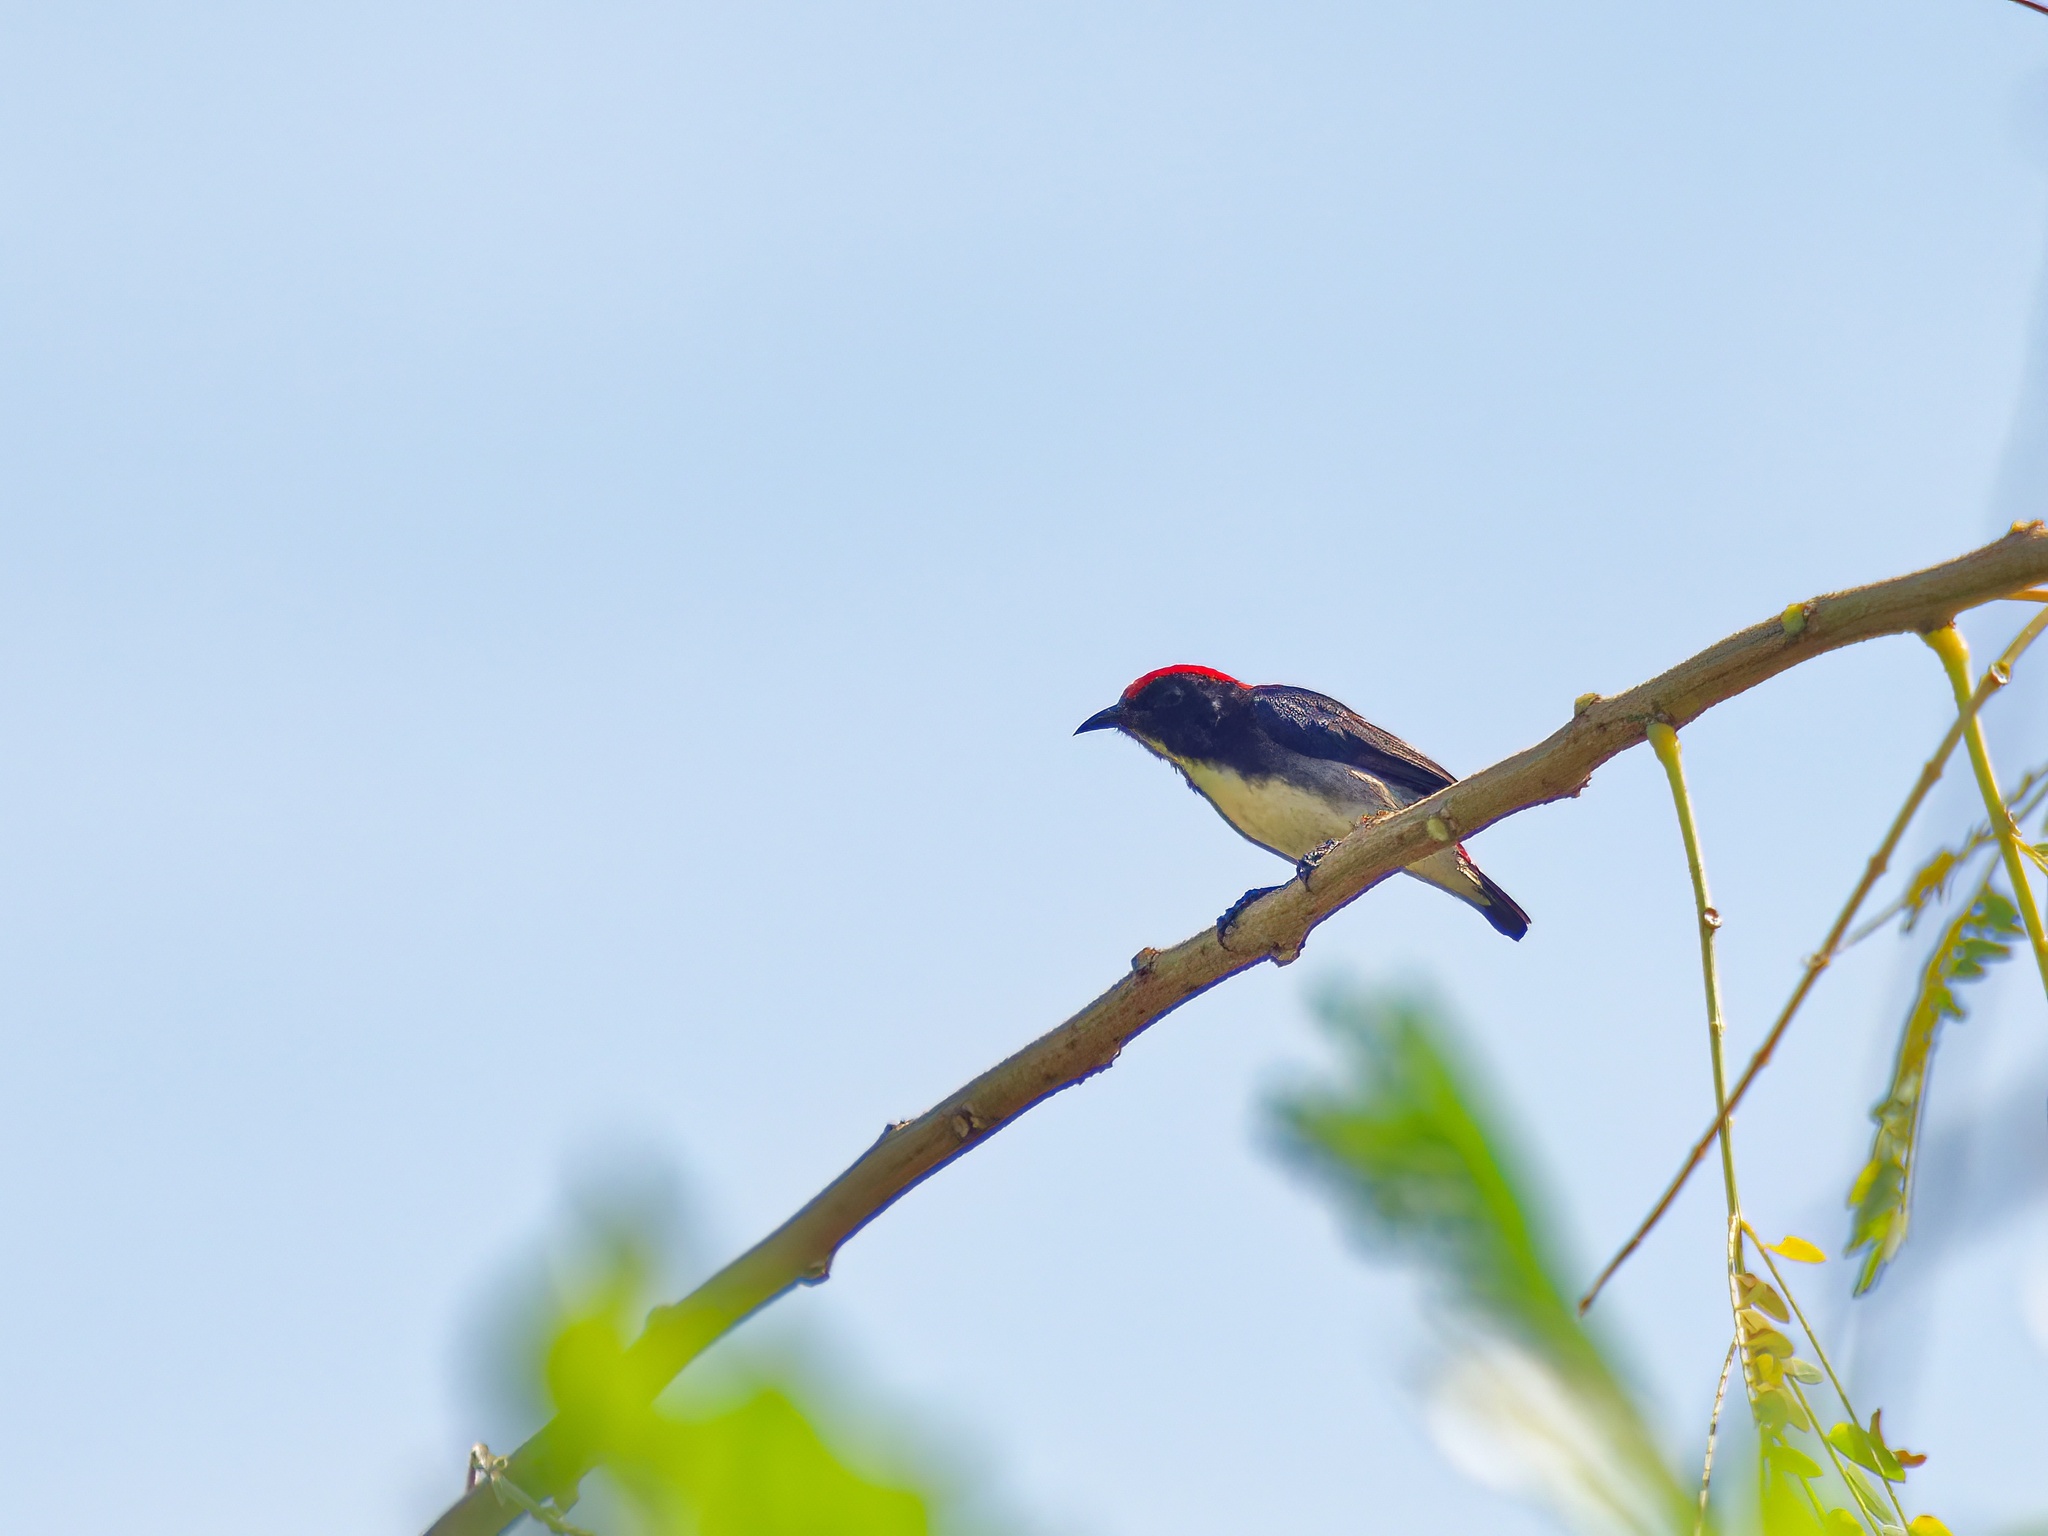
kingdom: Animalia
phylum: Chordata
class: Aves
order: Passeriformes
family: Dicaeidae
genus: Dicaeum
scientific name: Dicaeum cruentatum
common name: Scarlet-backed flowerpecker
